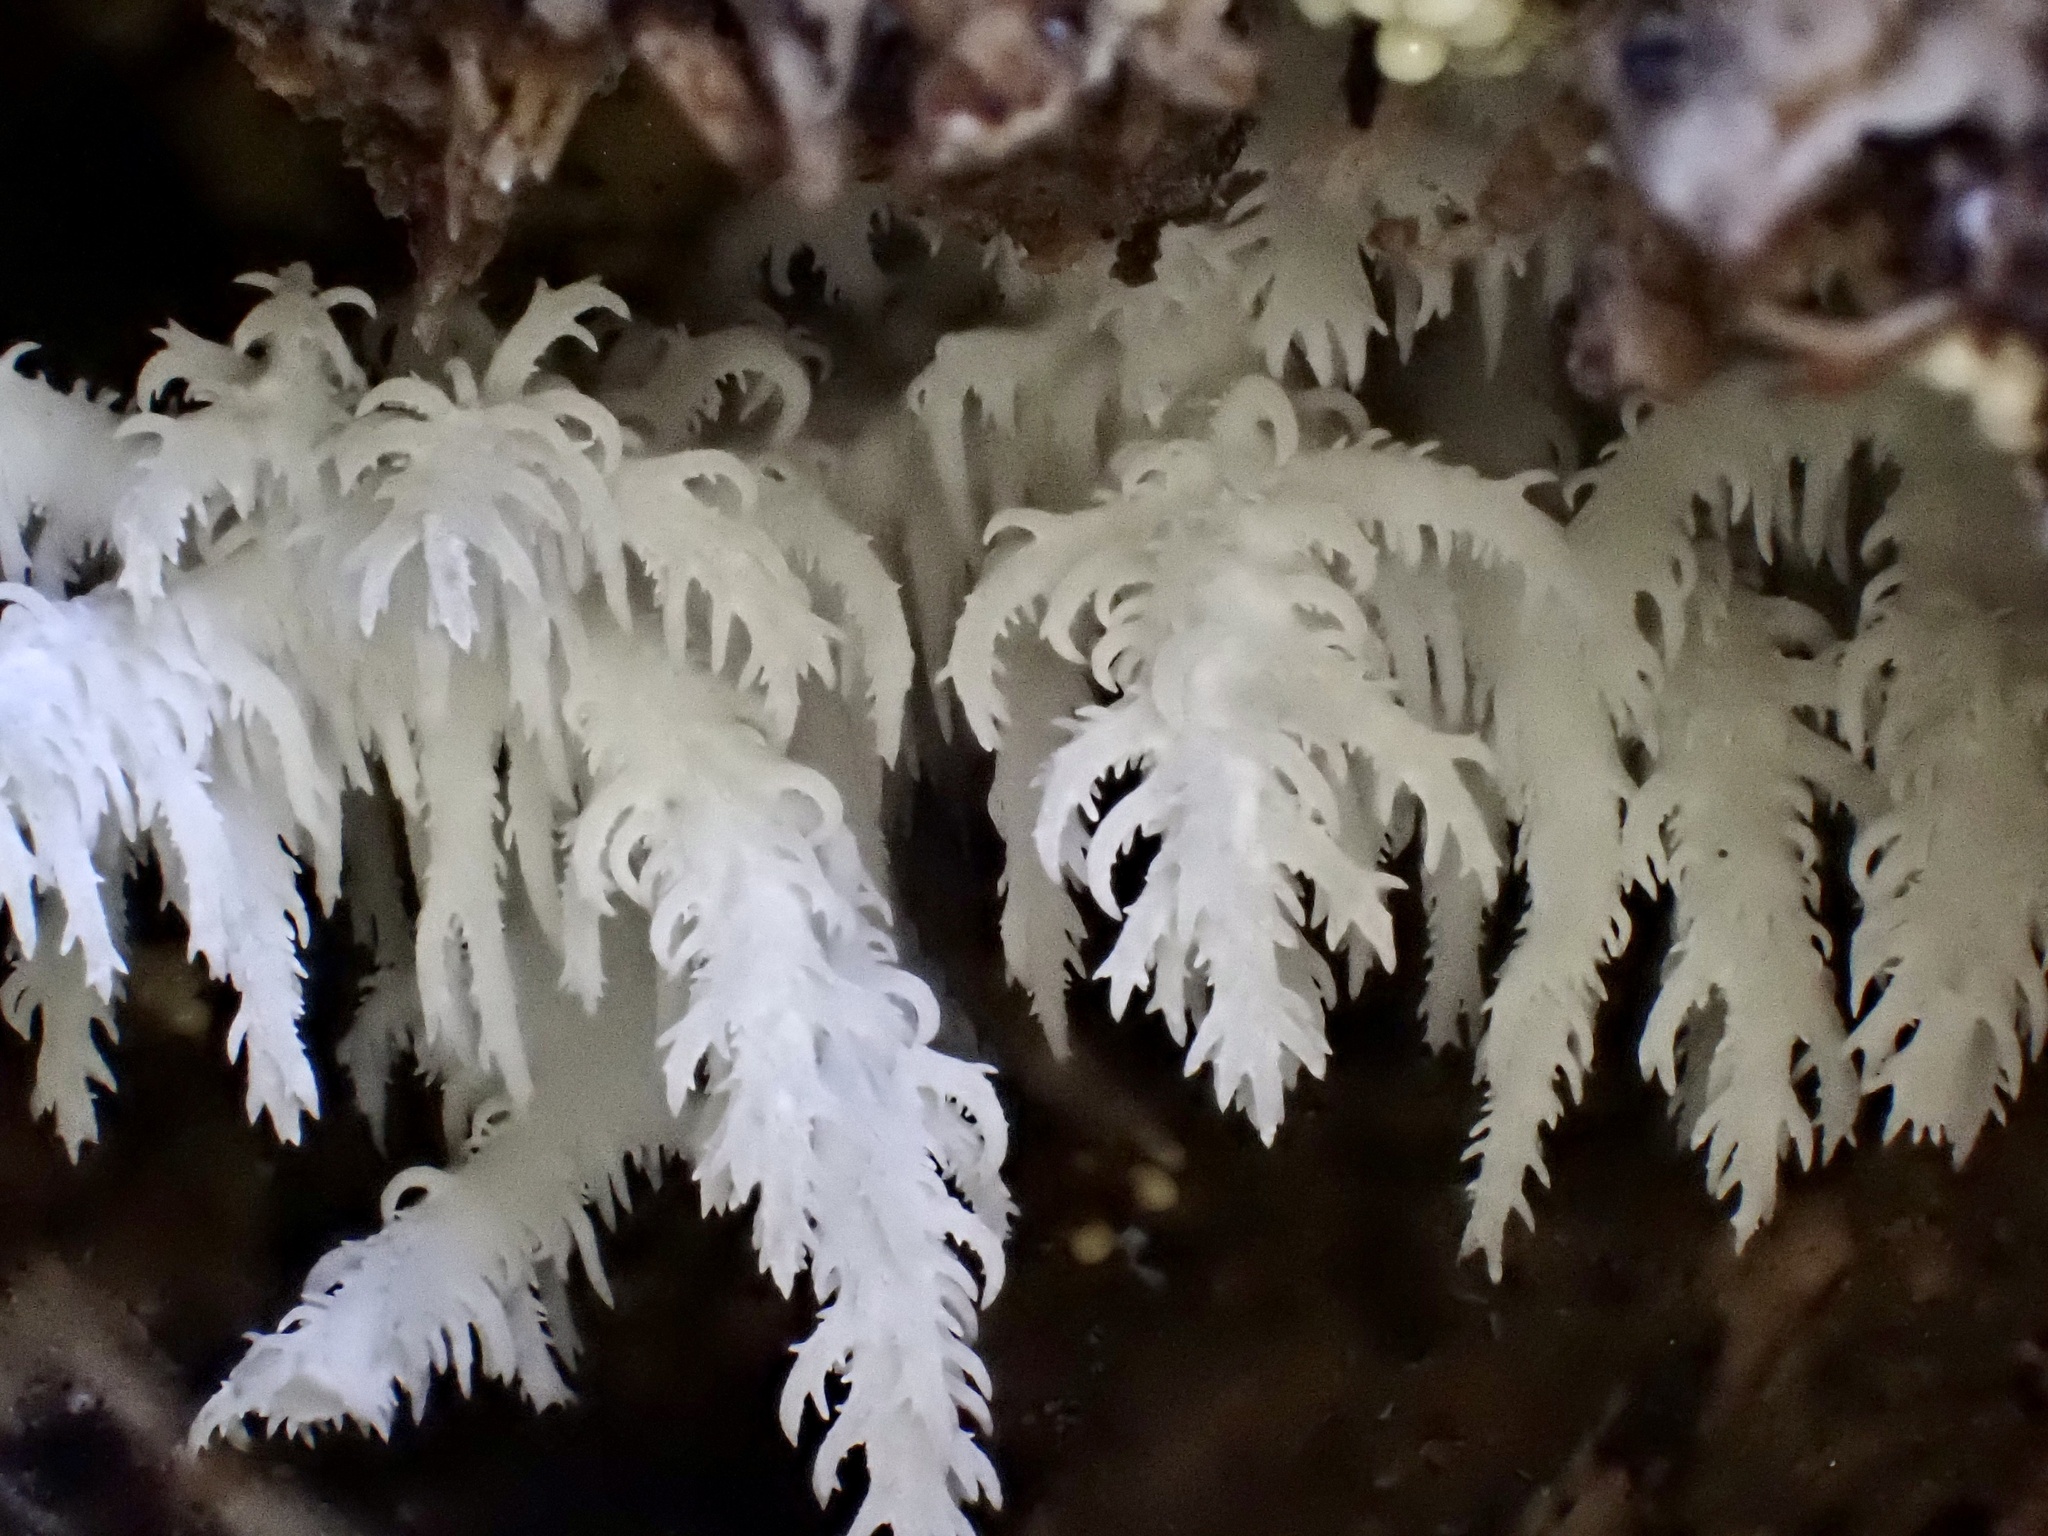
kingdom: Fungi
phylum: Basidiomycota
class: Agaricomycetes
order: Russulales
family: Hericiaceae
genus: Hericium
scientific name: Hericium coralloides
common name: Coral tooth
